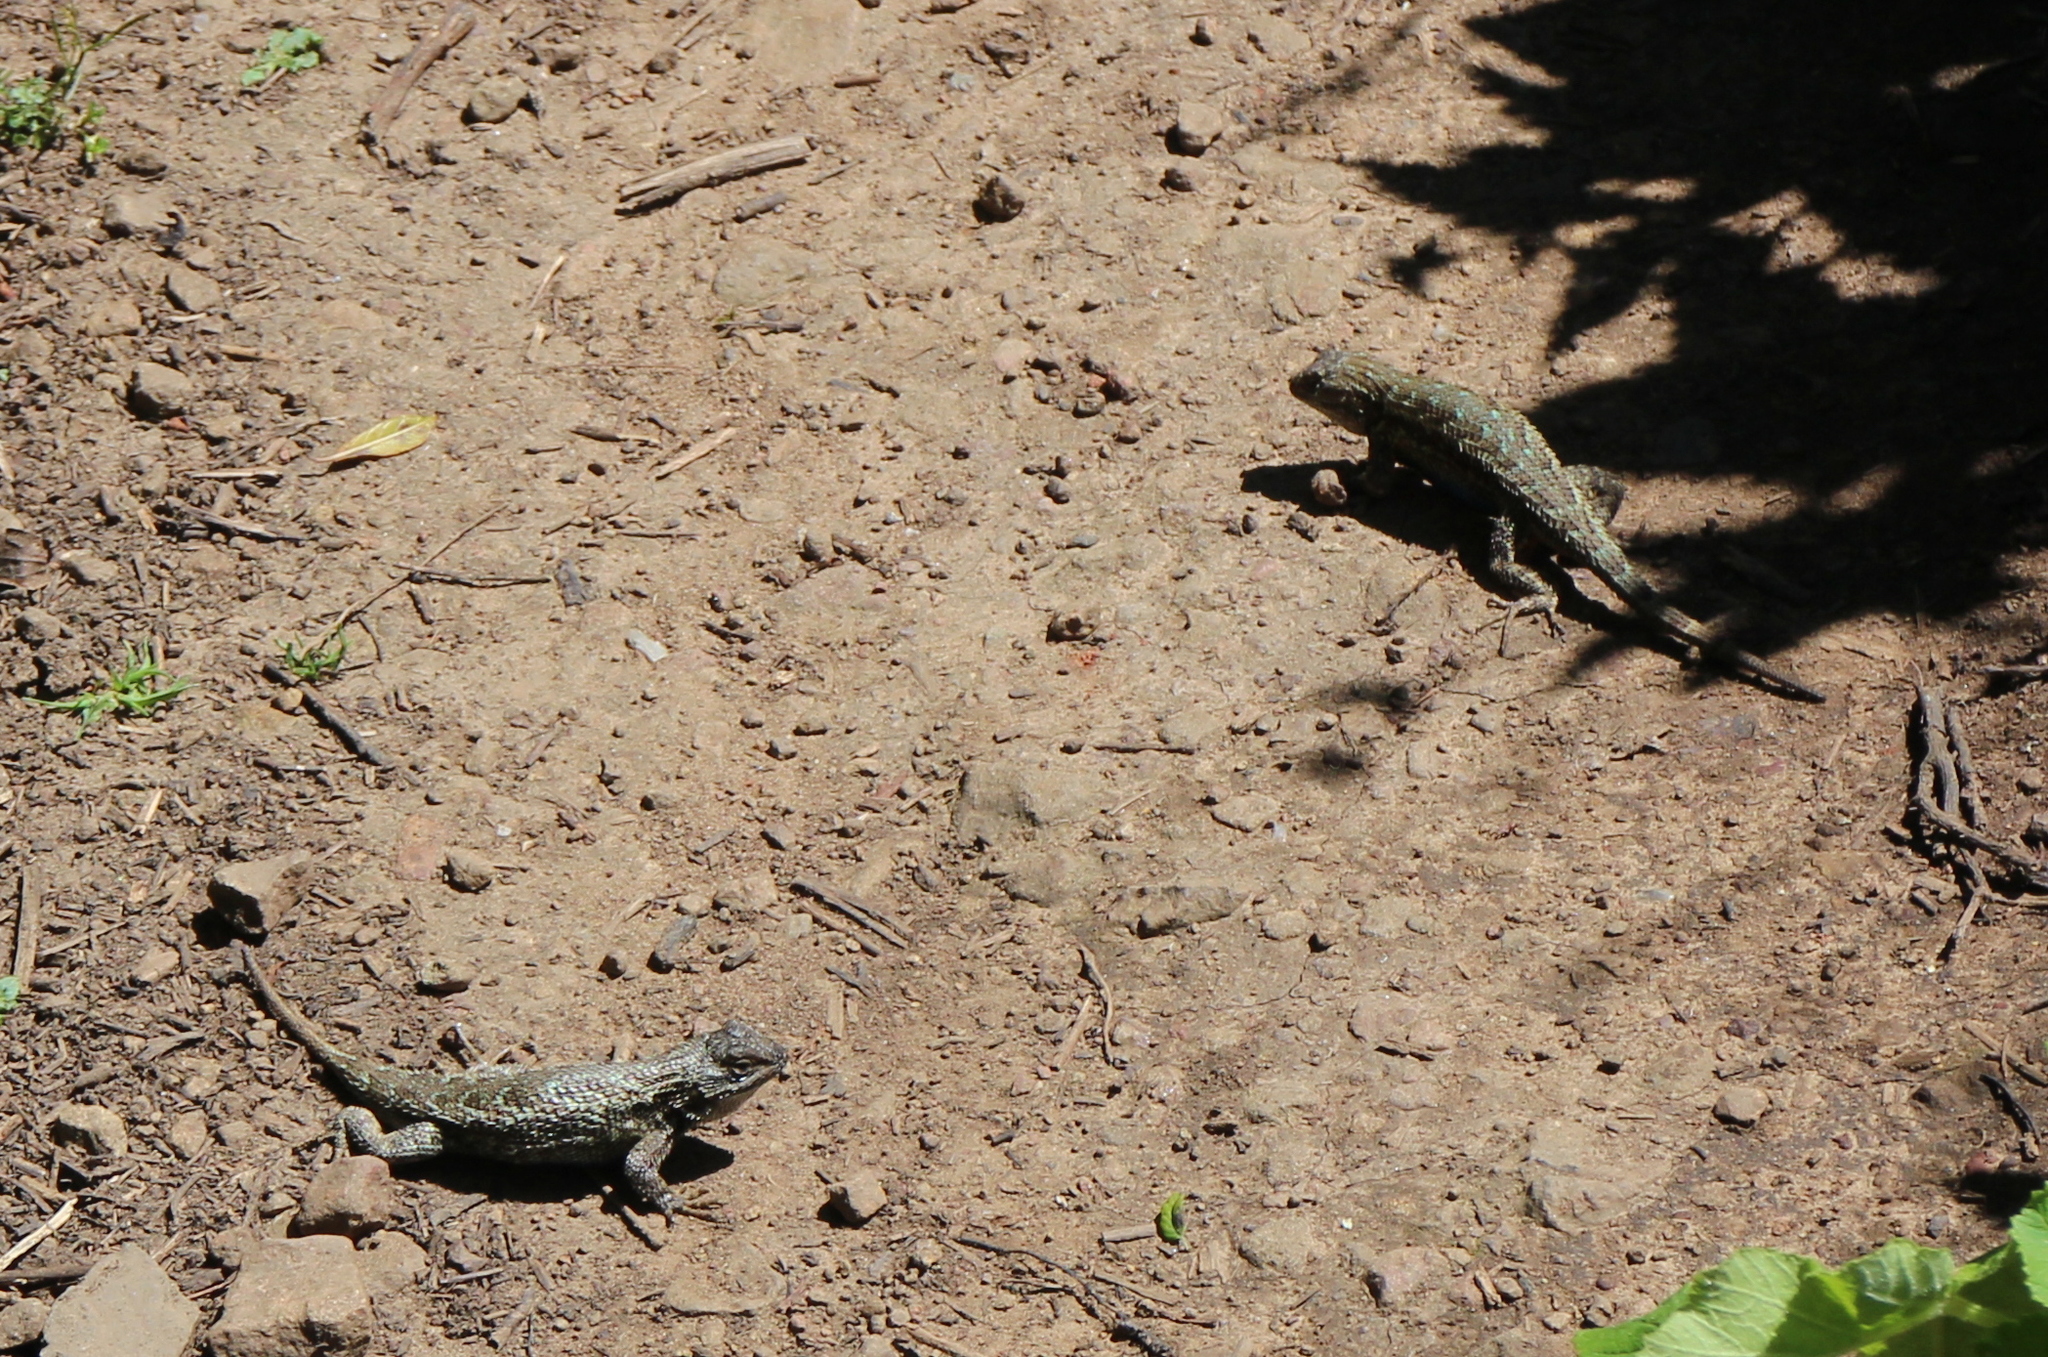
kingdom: Animalia
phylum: Chordata
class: Squamata
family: Phrynosomatidae
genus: Sceloporus
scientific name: Sceloporus occidentalis
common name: Western fence lizard
